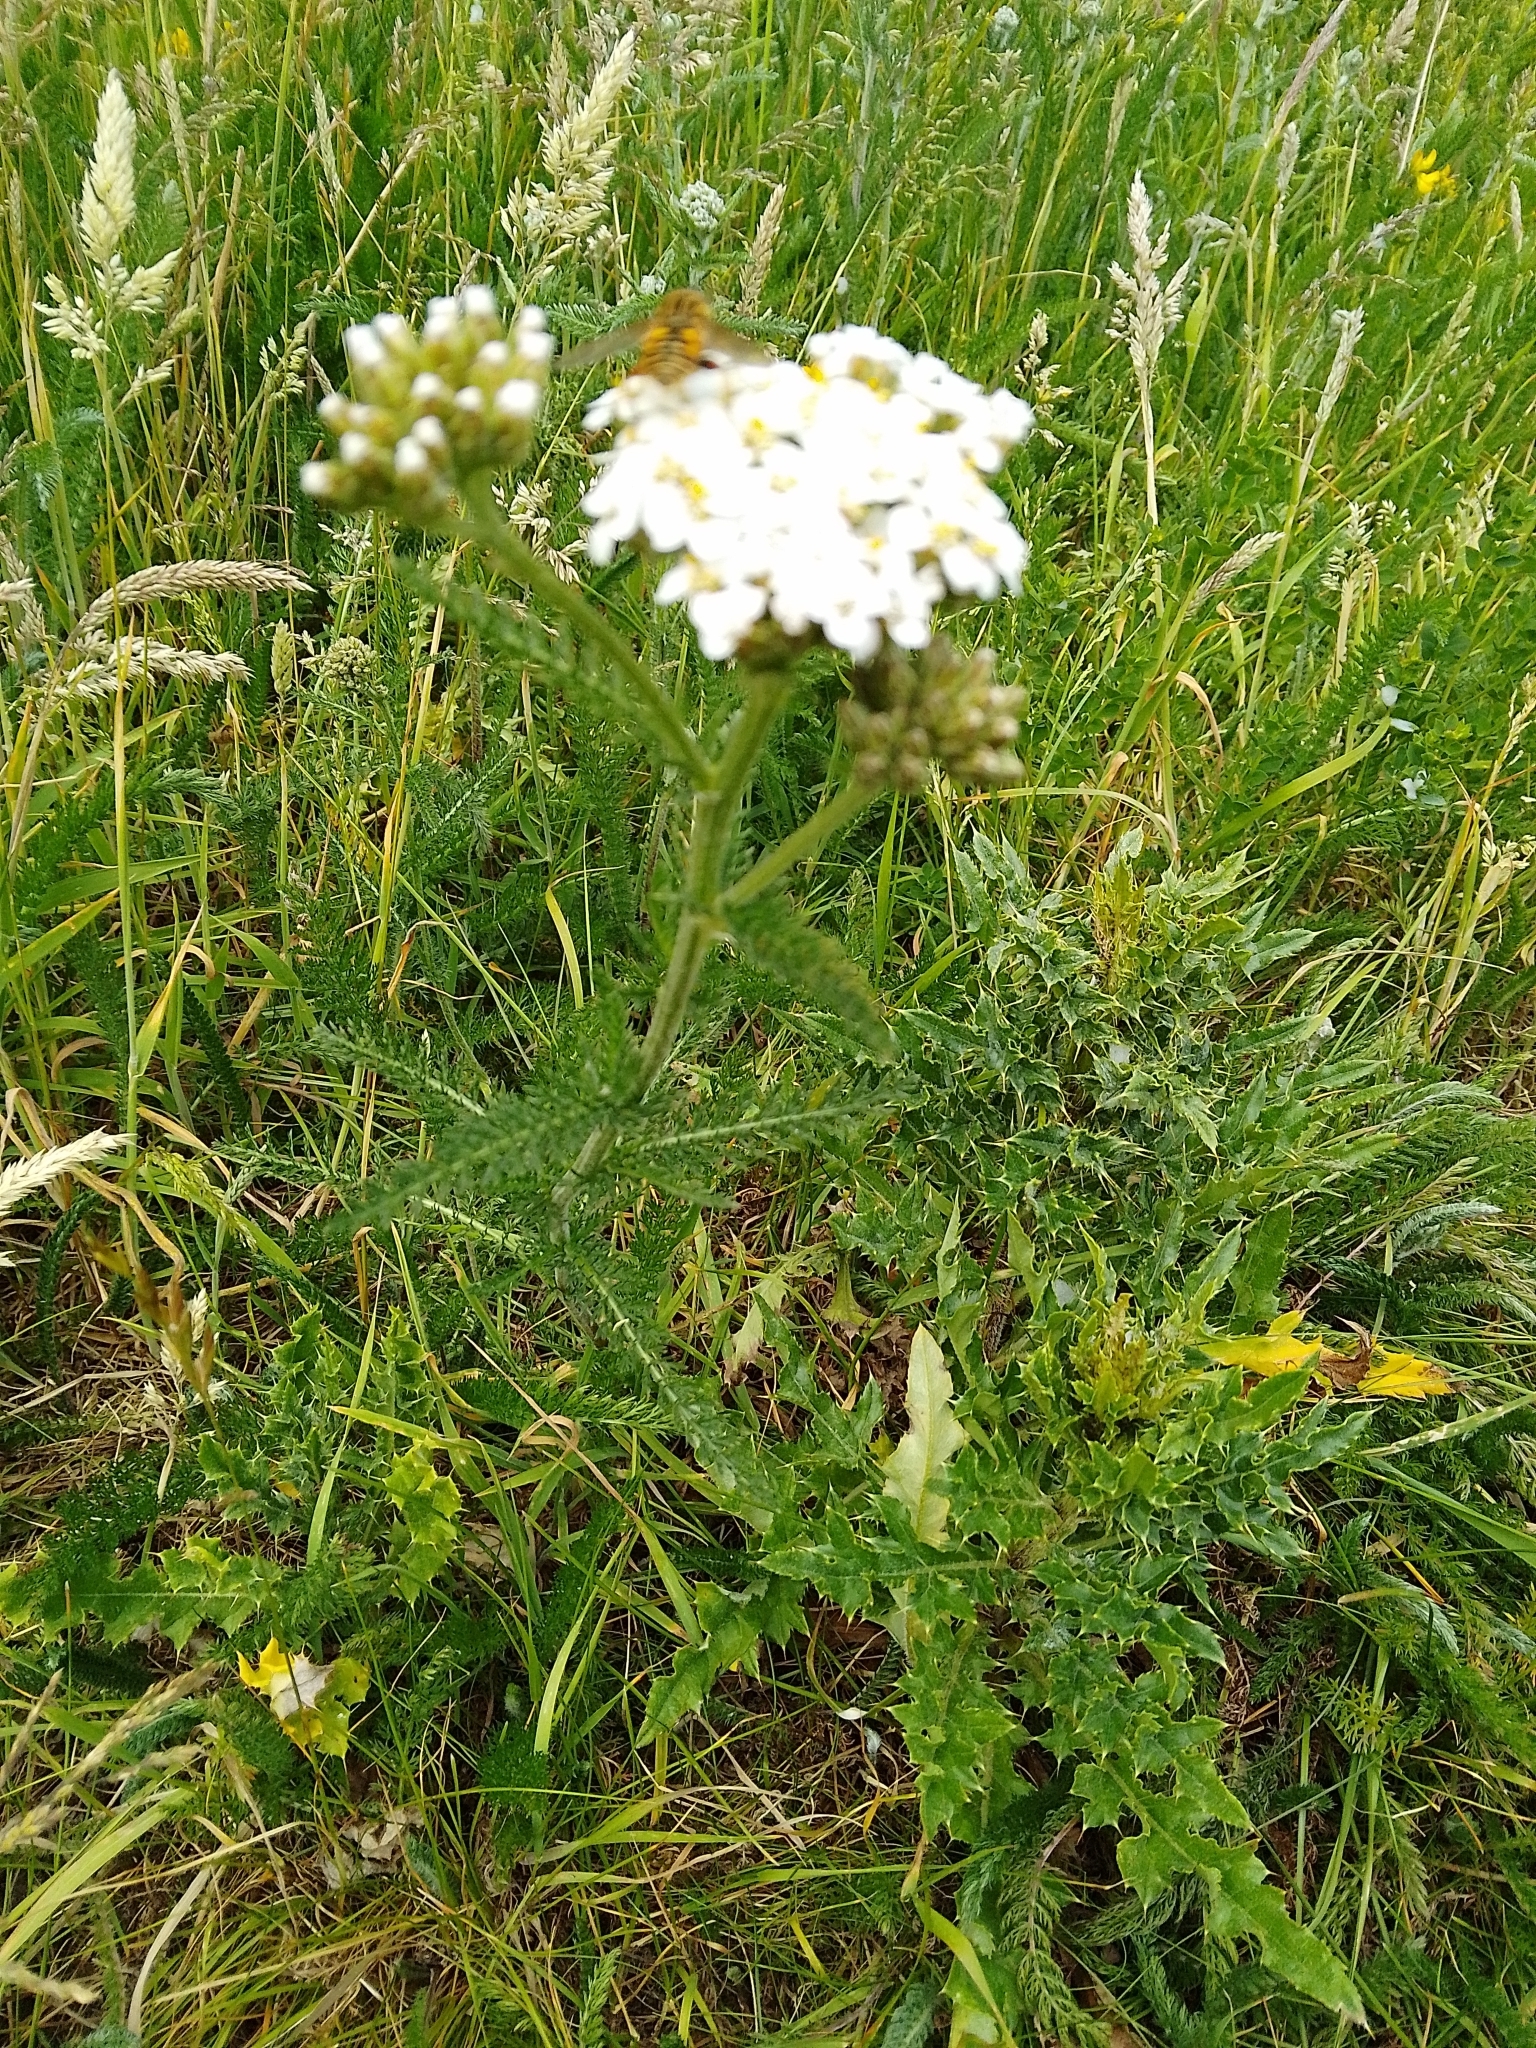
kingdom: Plantae
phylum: Tracheophyta
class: Magnoliopsida
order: Asterales
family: Asteraceae
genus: Achillea
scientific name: Achillea millefolium
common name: Yarrow
